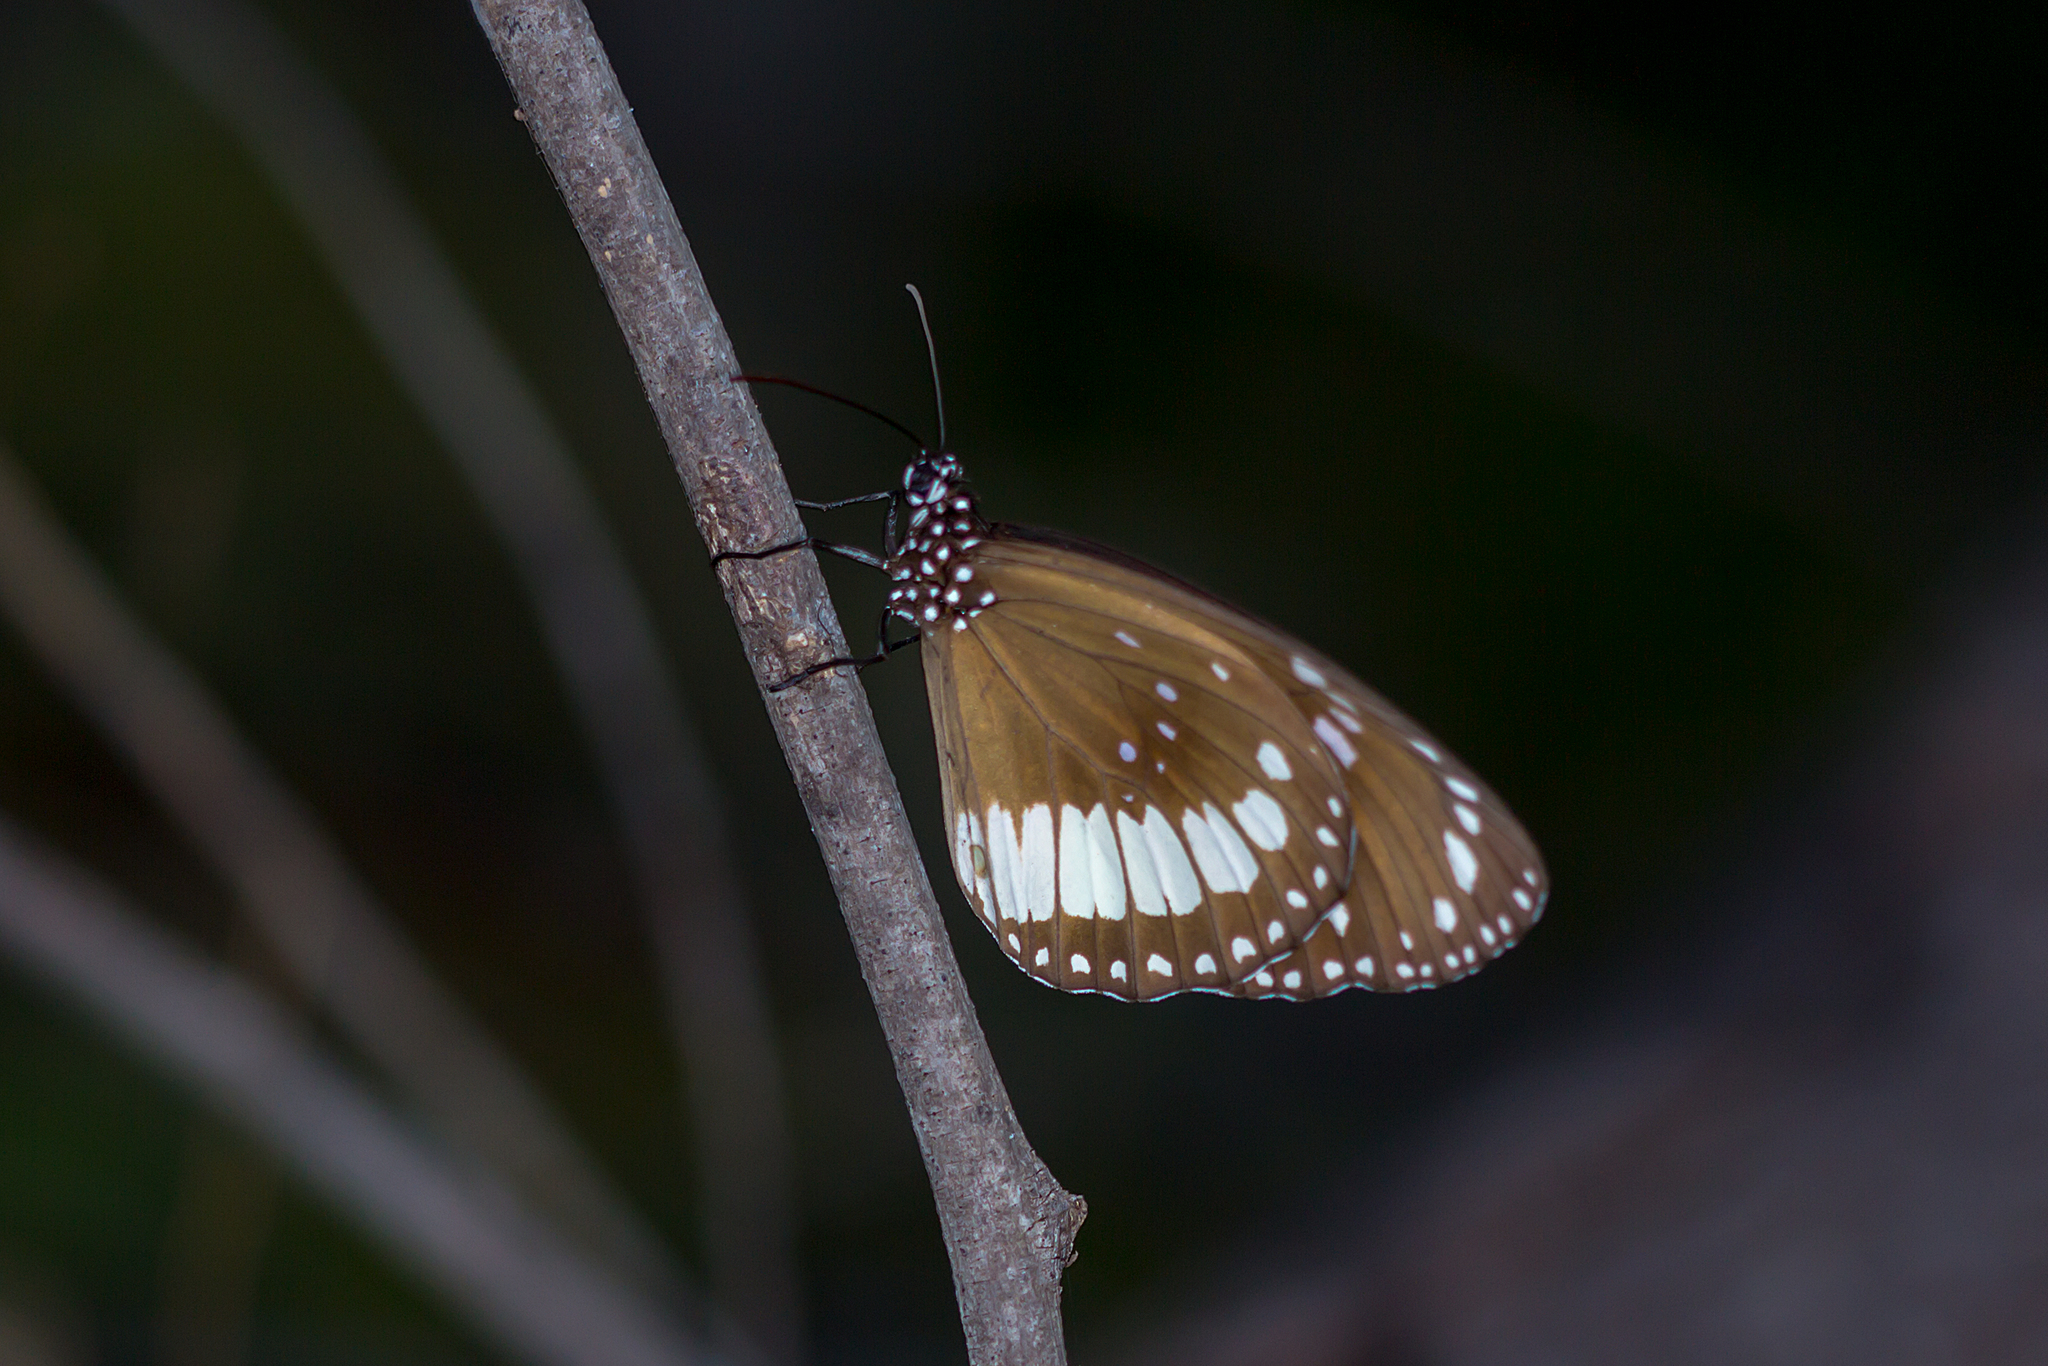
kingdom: Animalia
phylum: Arthropoda
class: Insecta
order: Lepidoptera
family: Nymphalidae
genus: Euploea
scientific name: Euploea alcathoe
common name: No-brand crow
